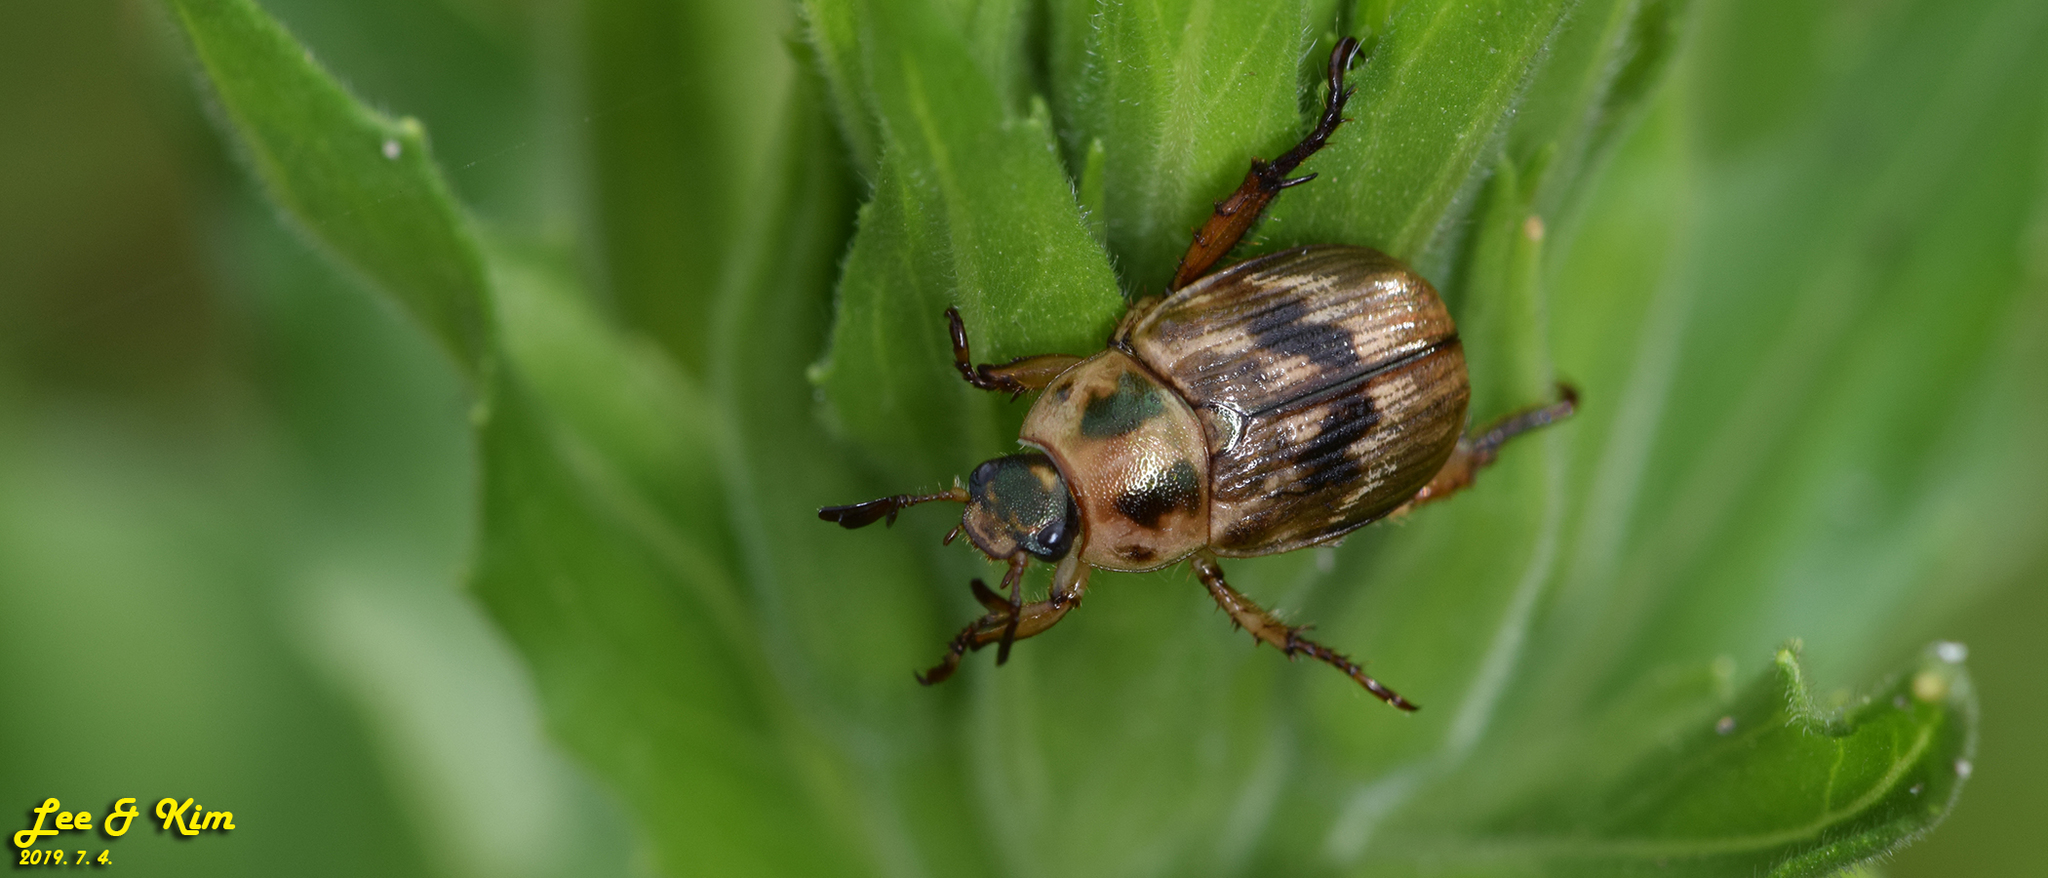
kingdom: Animalia
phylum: Arthropoda
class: Insecta
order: Coleoptera
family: Scarabaeidae
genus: Exomala
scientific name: Exomala orientalis
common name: Oriental beetle
